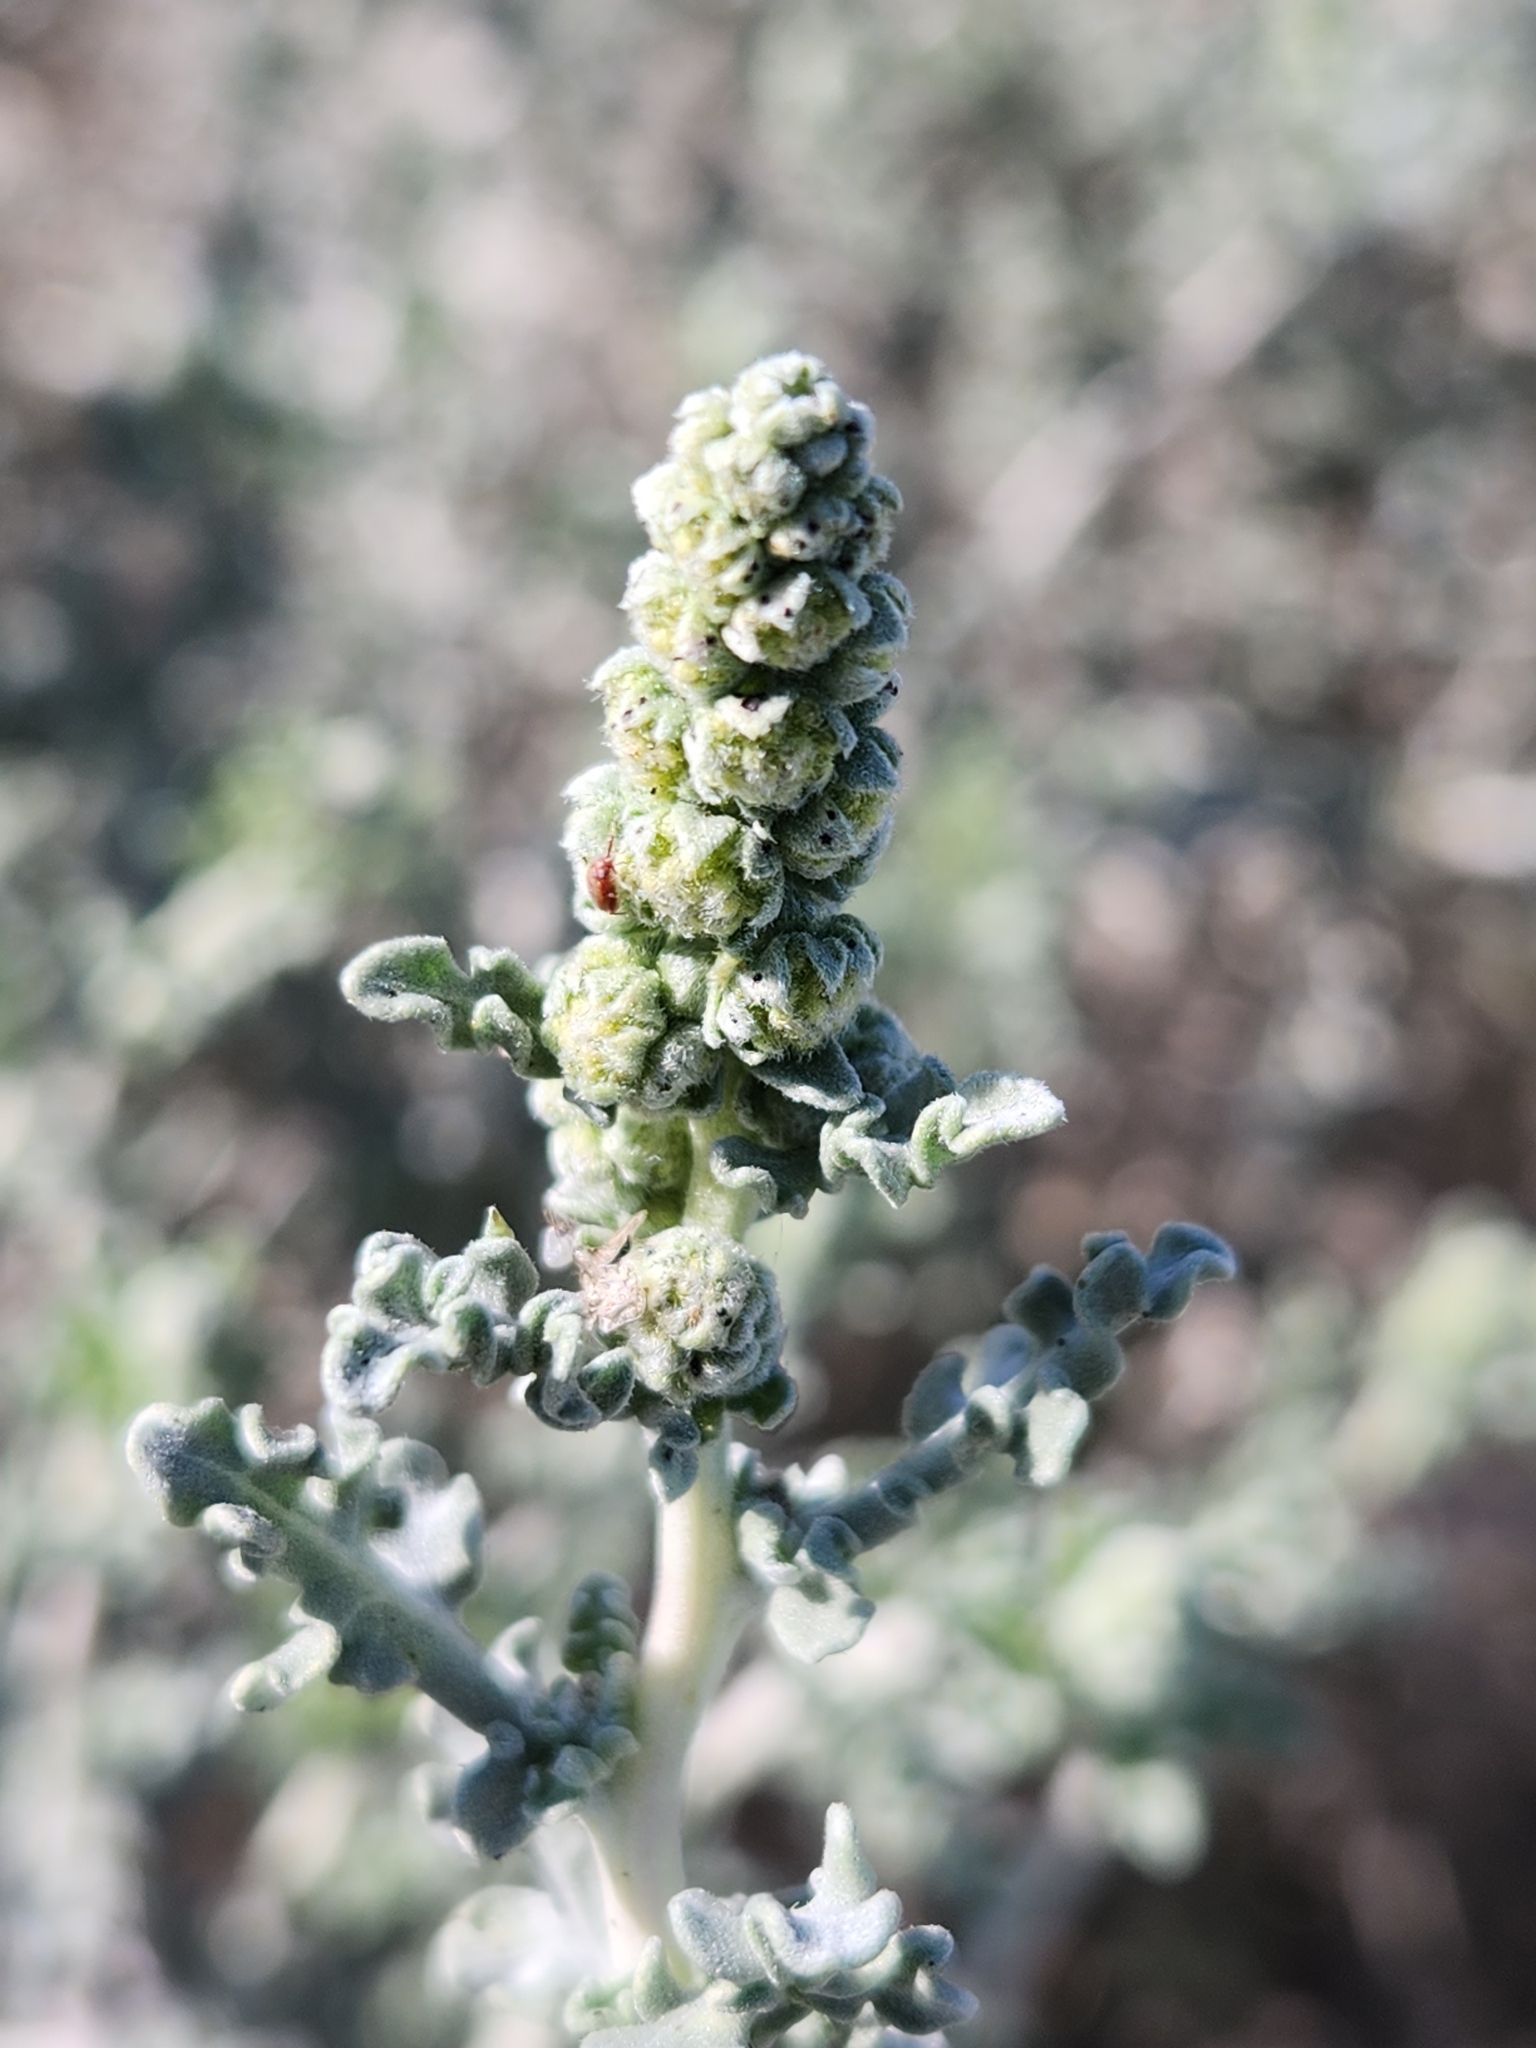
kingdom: Plantae
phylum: Tracheophyta
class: Magnoliopsida
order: Asterales
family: Asteraceae
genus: Ambrosia
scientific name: Ambrosia dumosa
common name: Bur-sage
